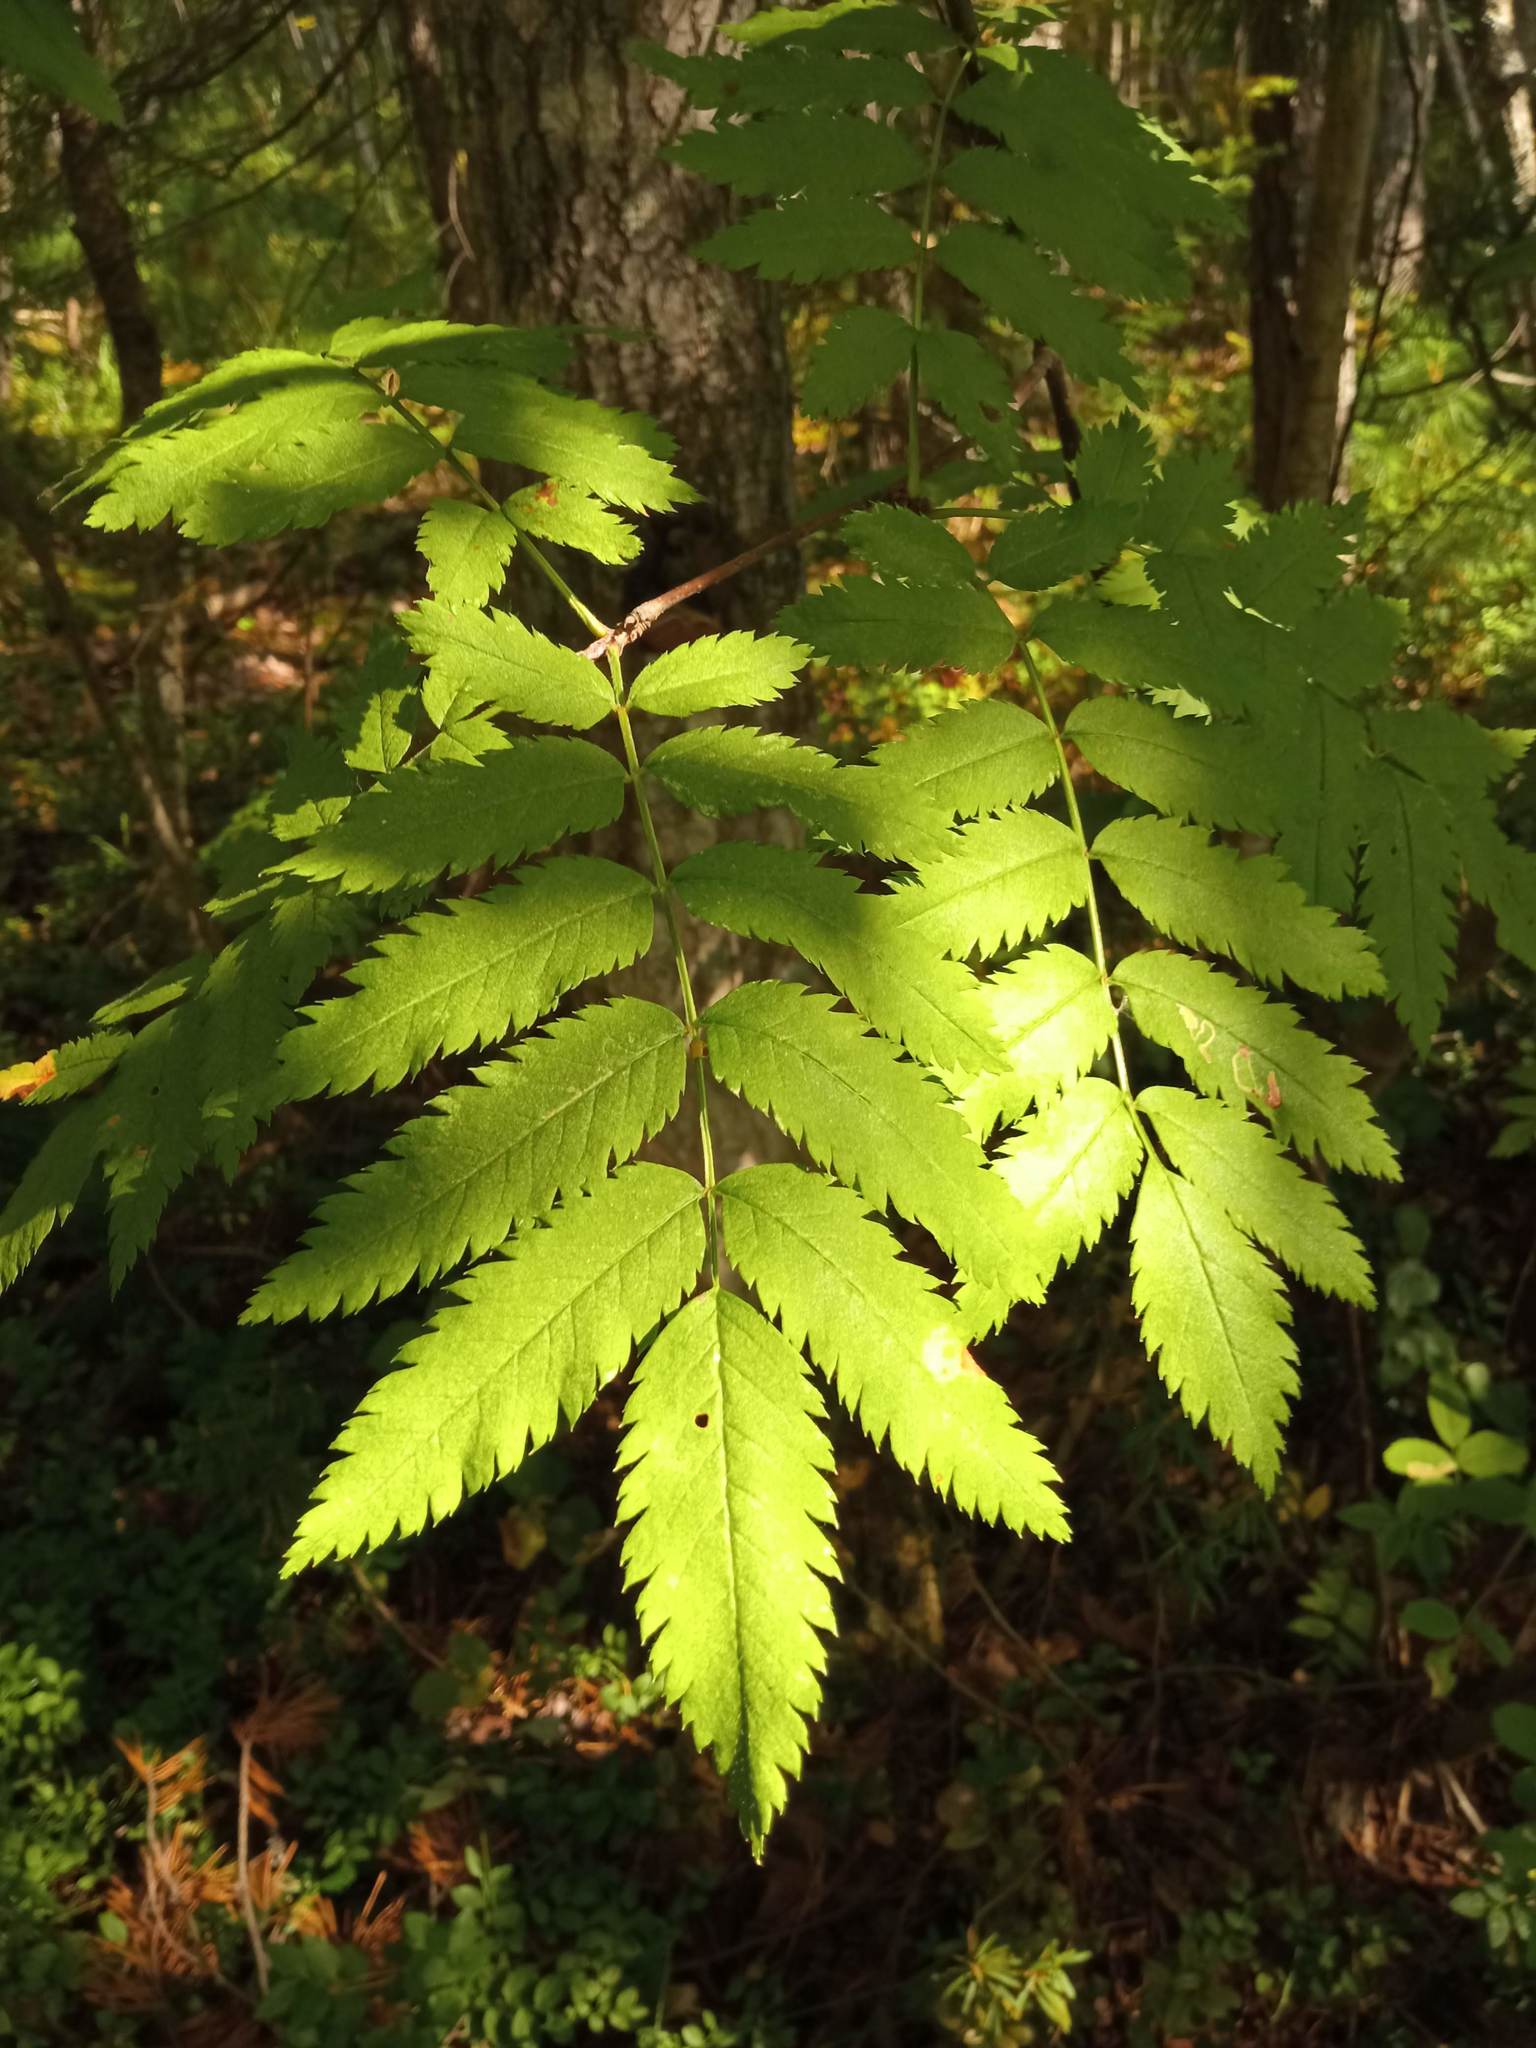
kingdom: Plantae
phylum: Tracheophyta
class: Magnoliopsida
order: Rosales
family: Rosaceae
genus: Sorbus
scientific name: Sorbus aucuparia
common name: Rowan
